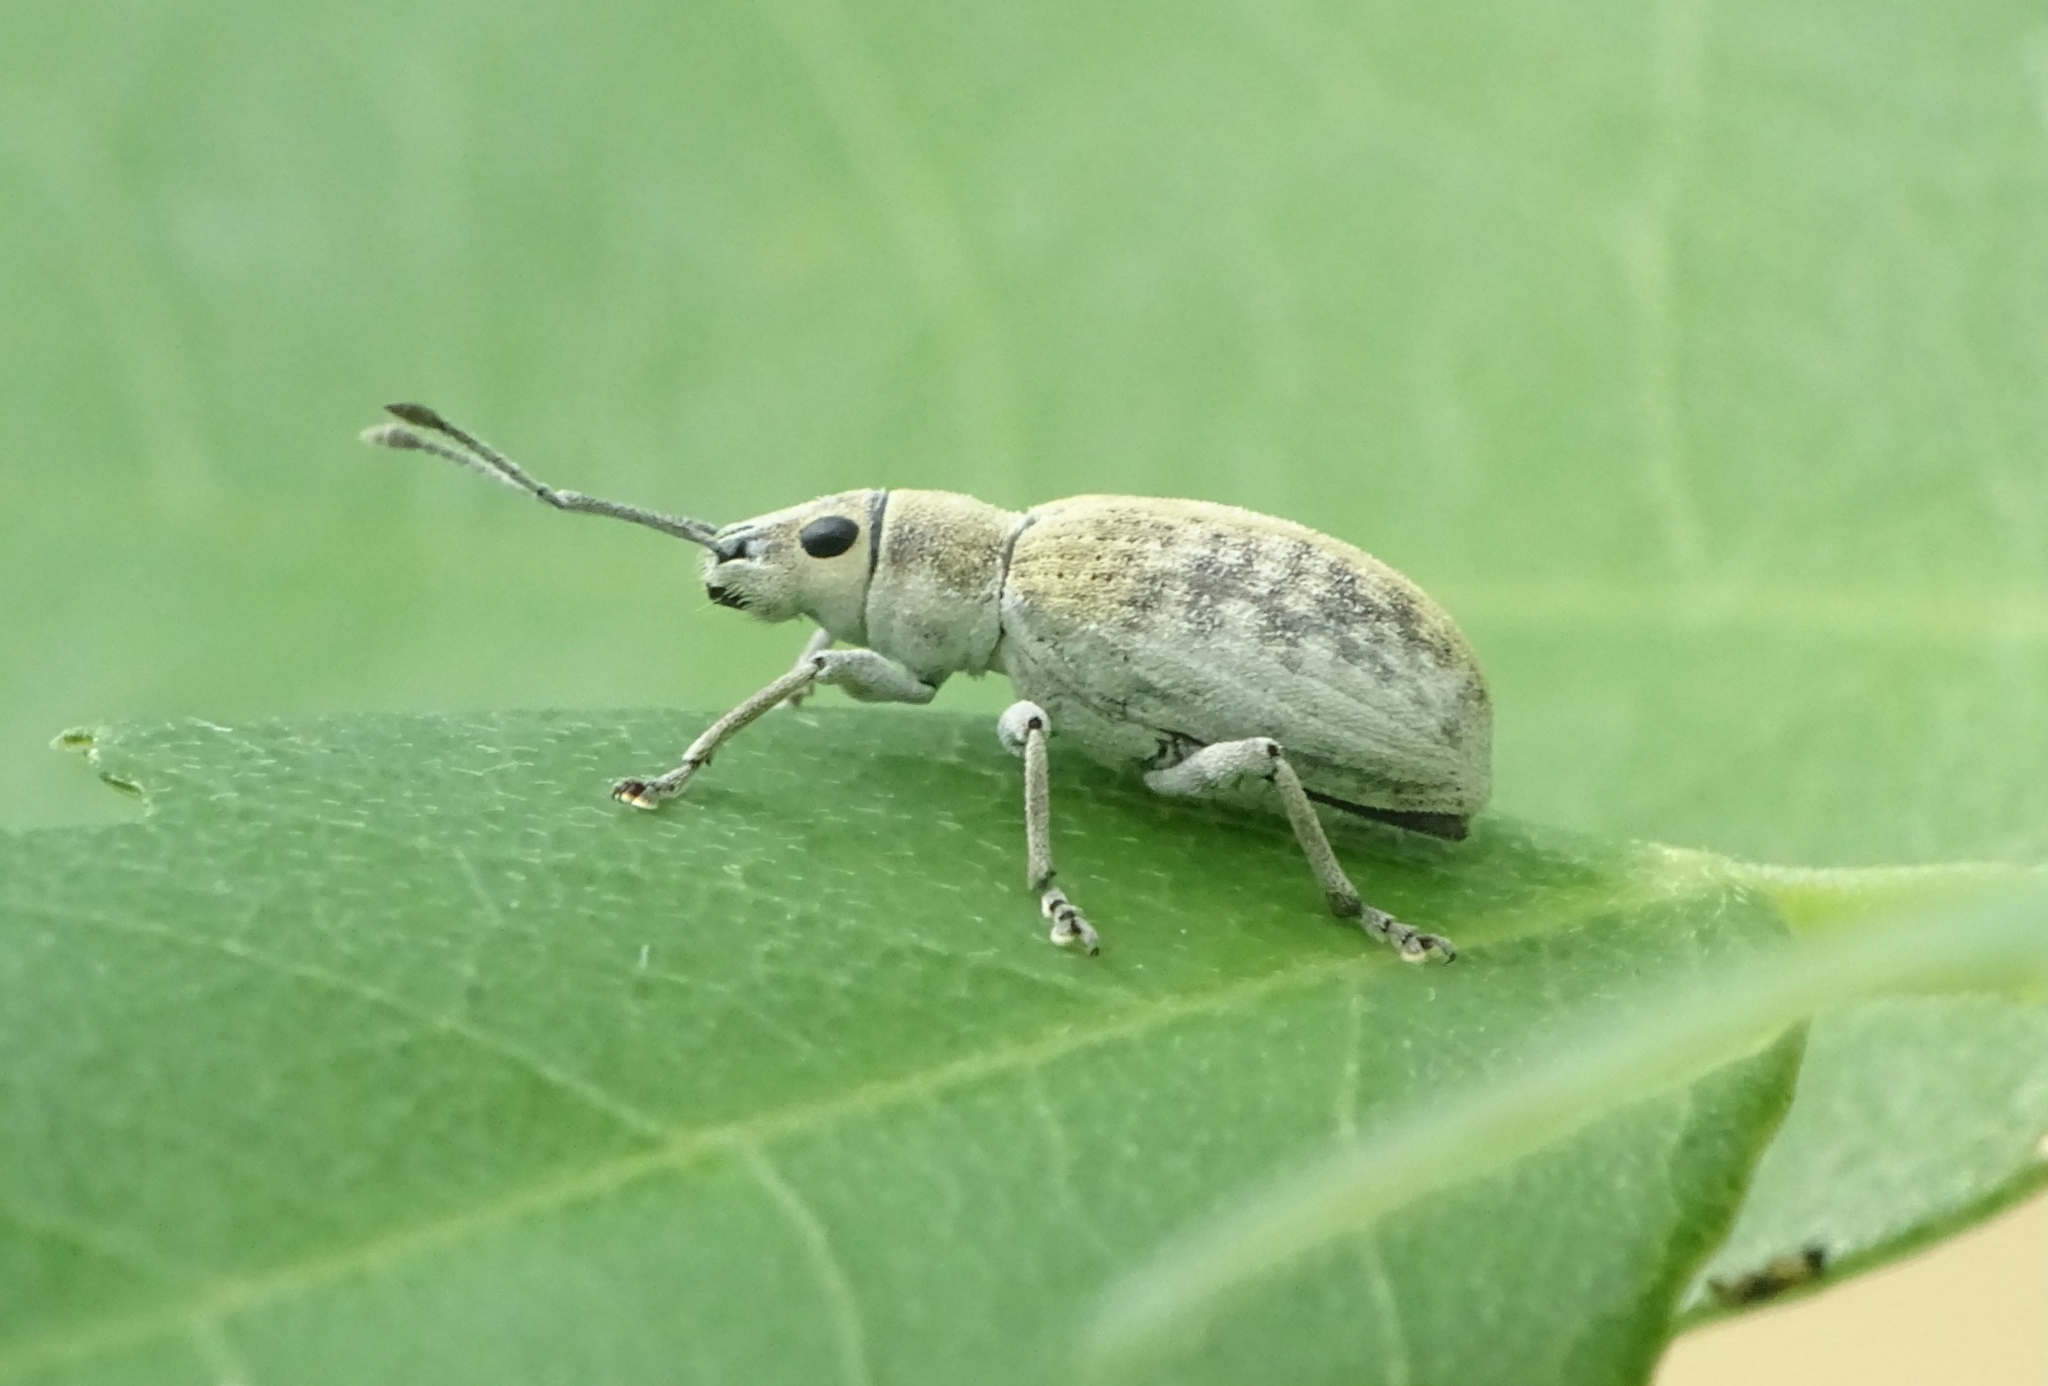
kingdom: Animalia
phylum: Arthropoda
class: Insecta
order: Coleoptera
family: Curculionidae
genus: Myllocerus
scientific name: Myllocerus undecimpustulatus
